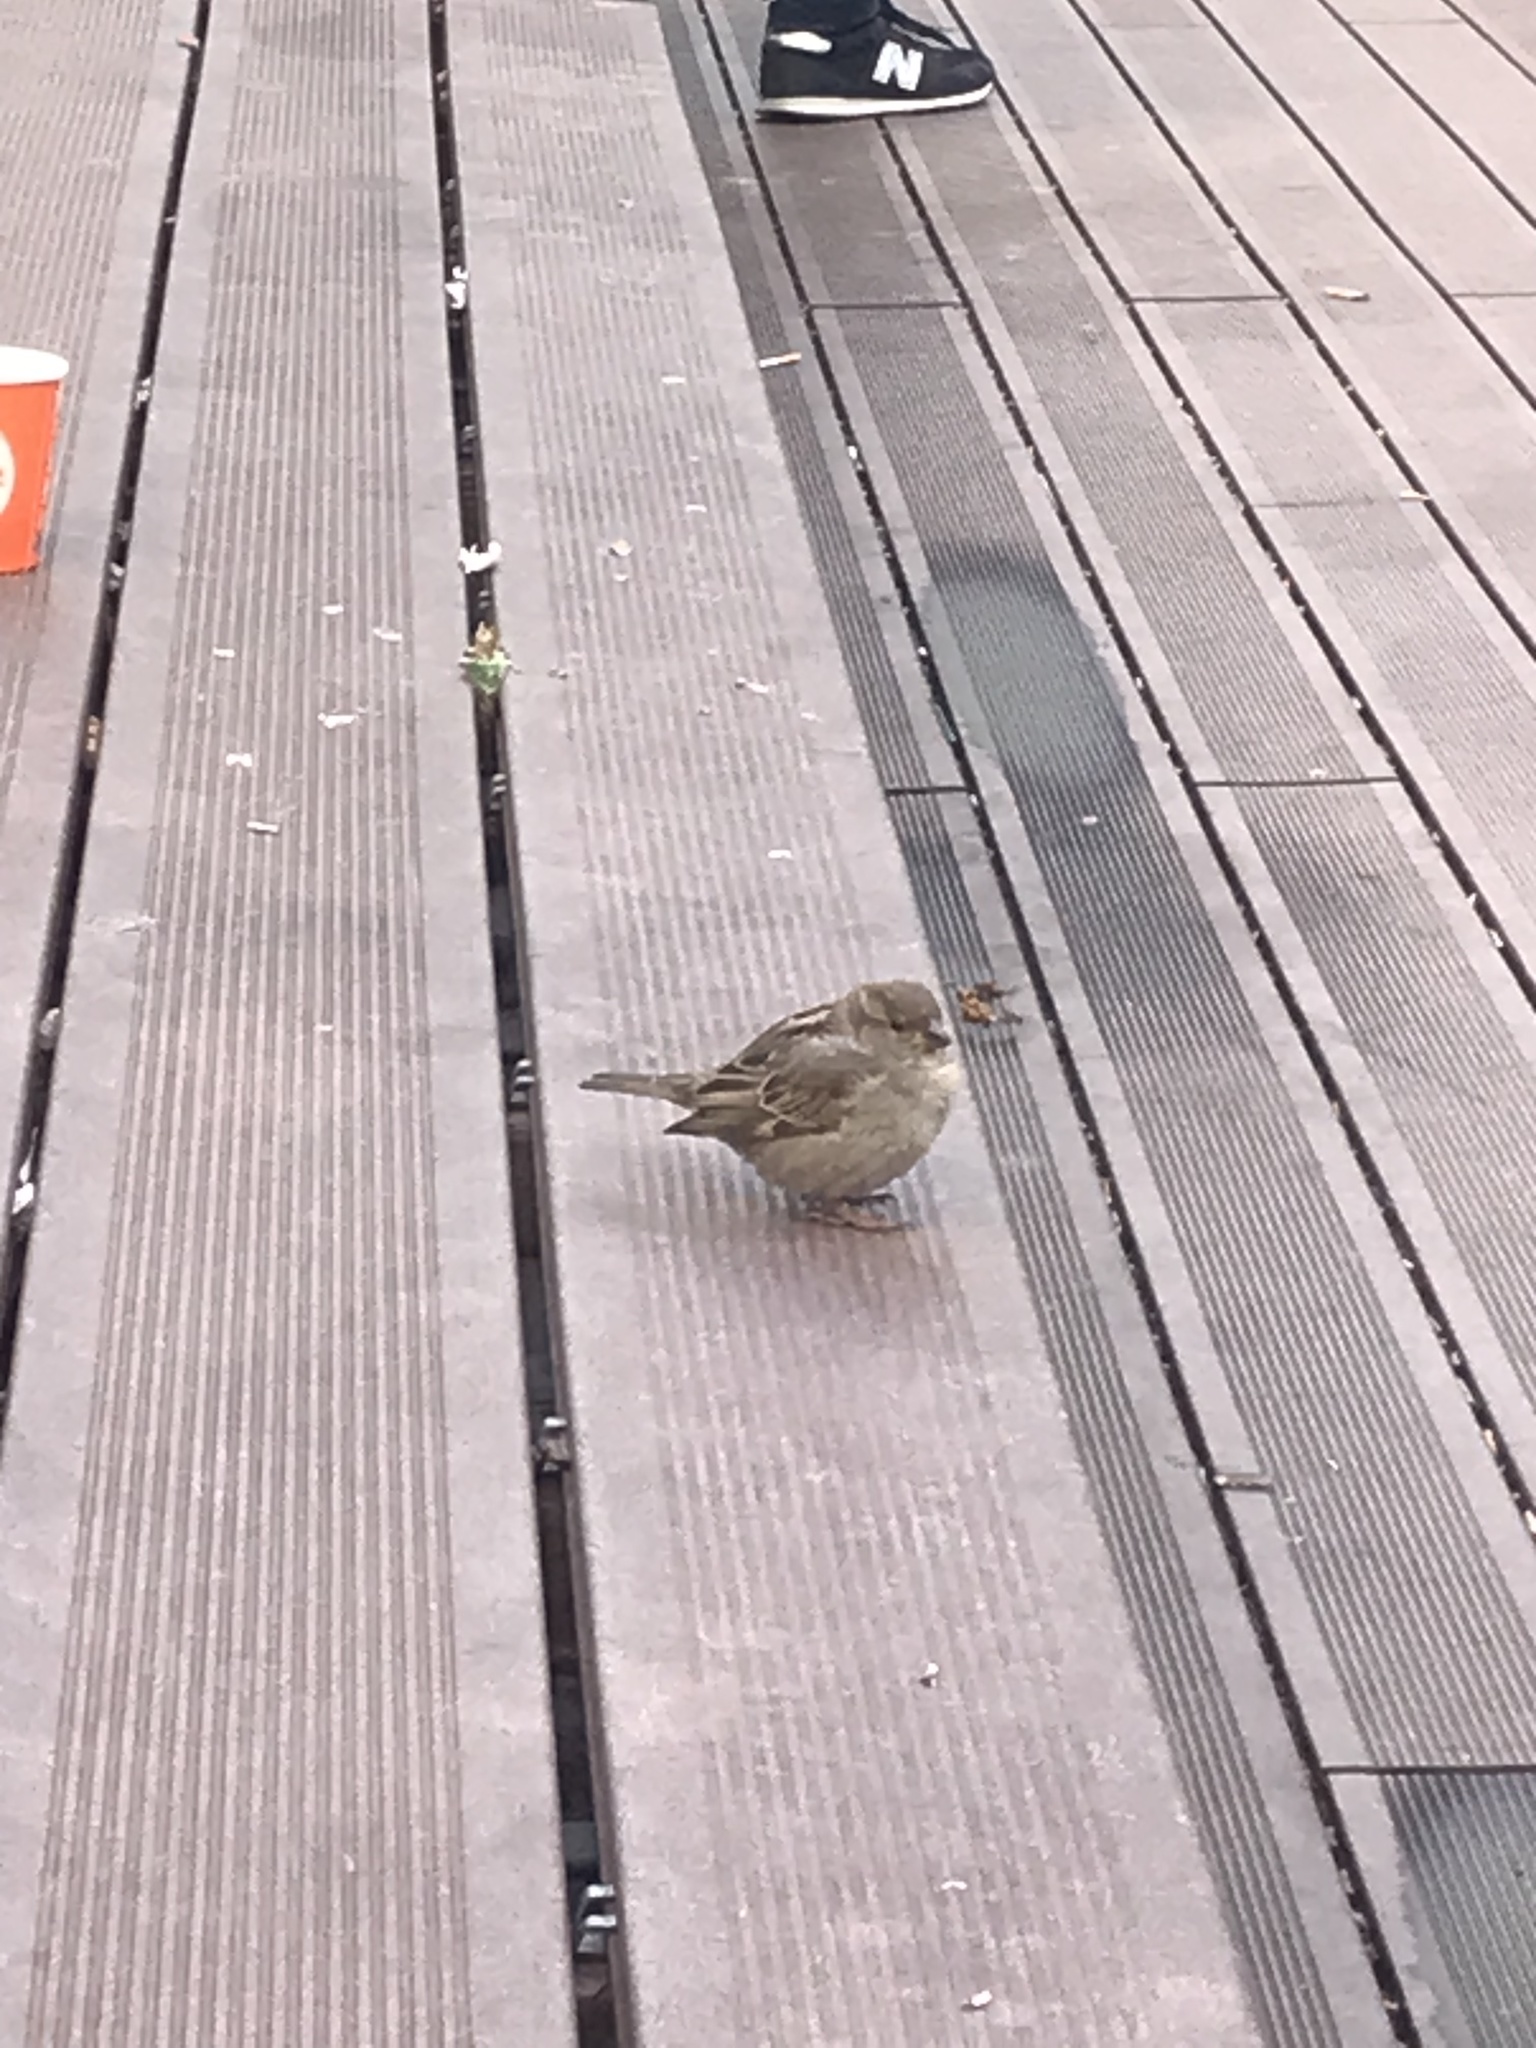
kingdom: Animalia
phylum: Chordata
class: Aves
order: Passeriformes
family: Passeridae
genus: Passer
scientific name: Passer domesticus
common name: House sparrow
